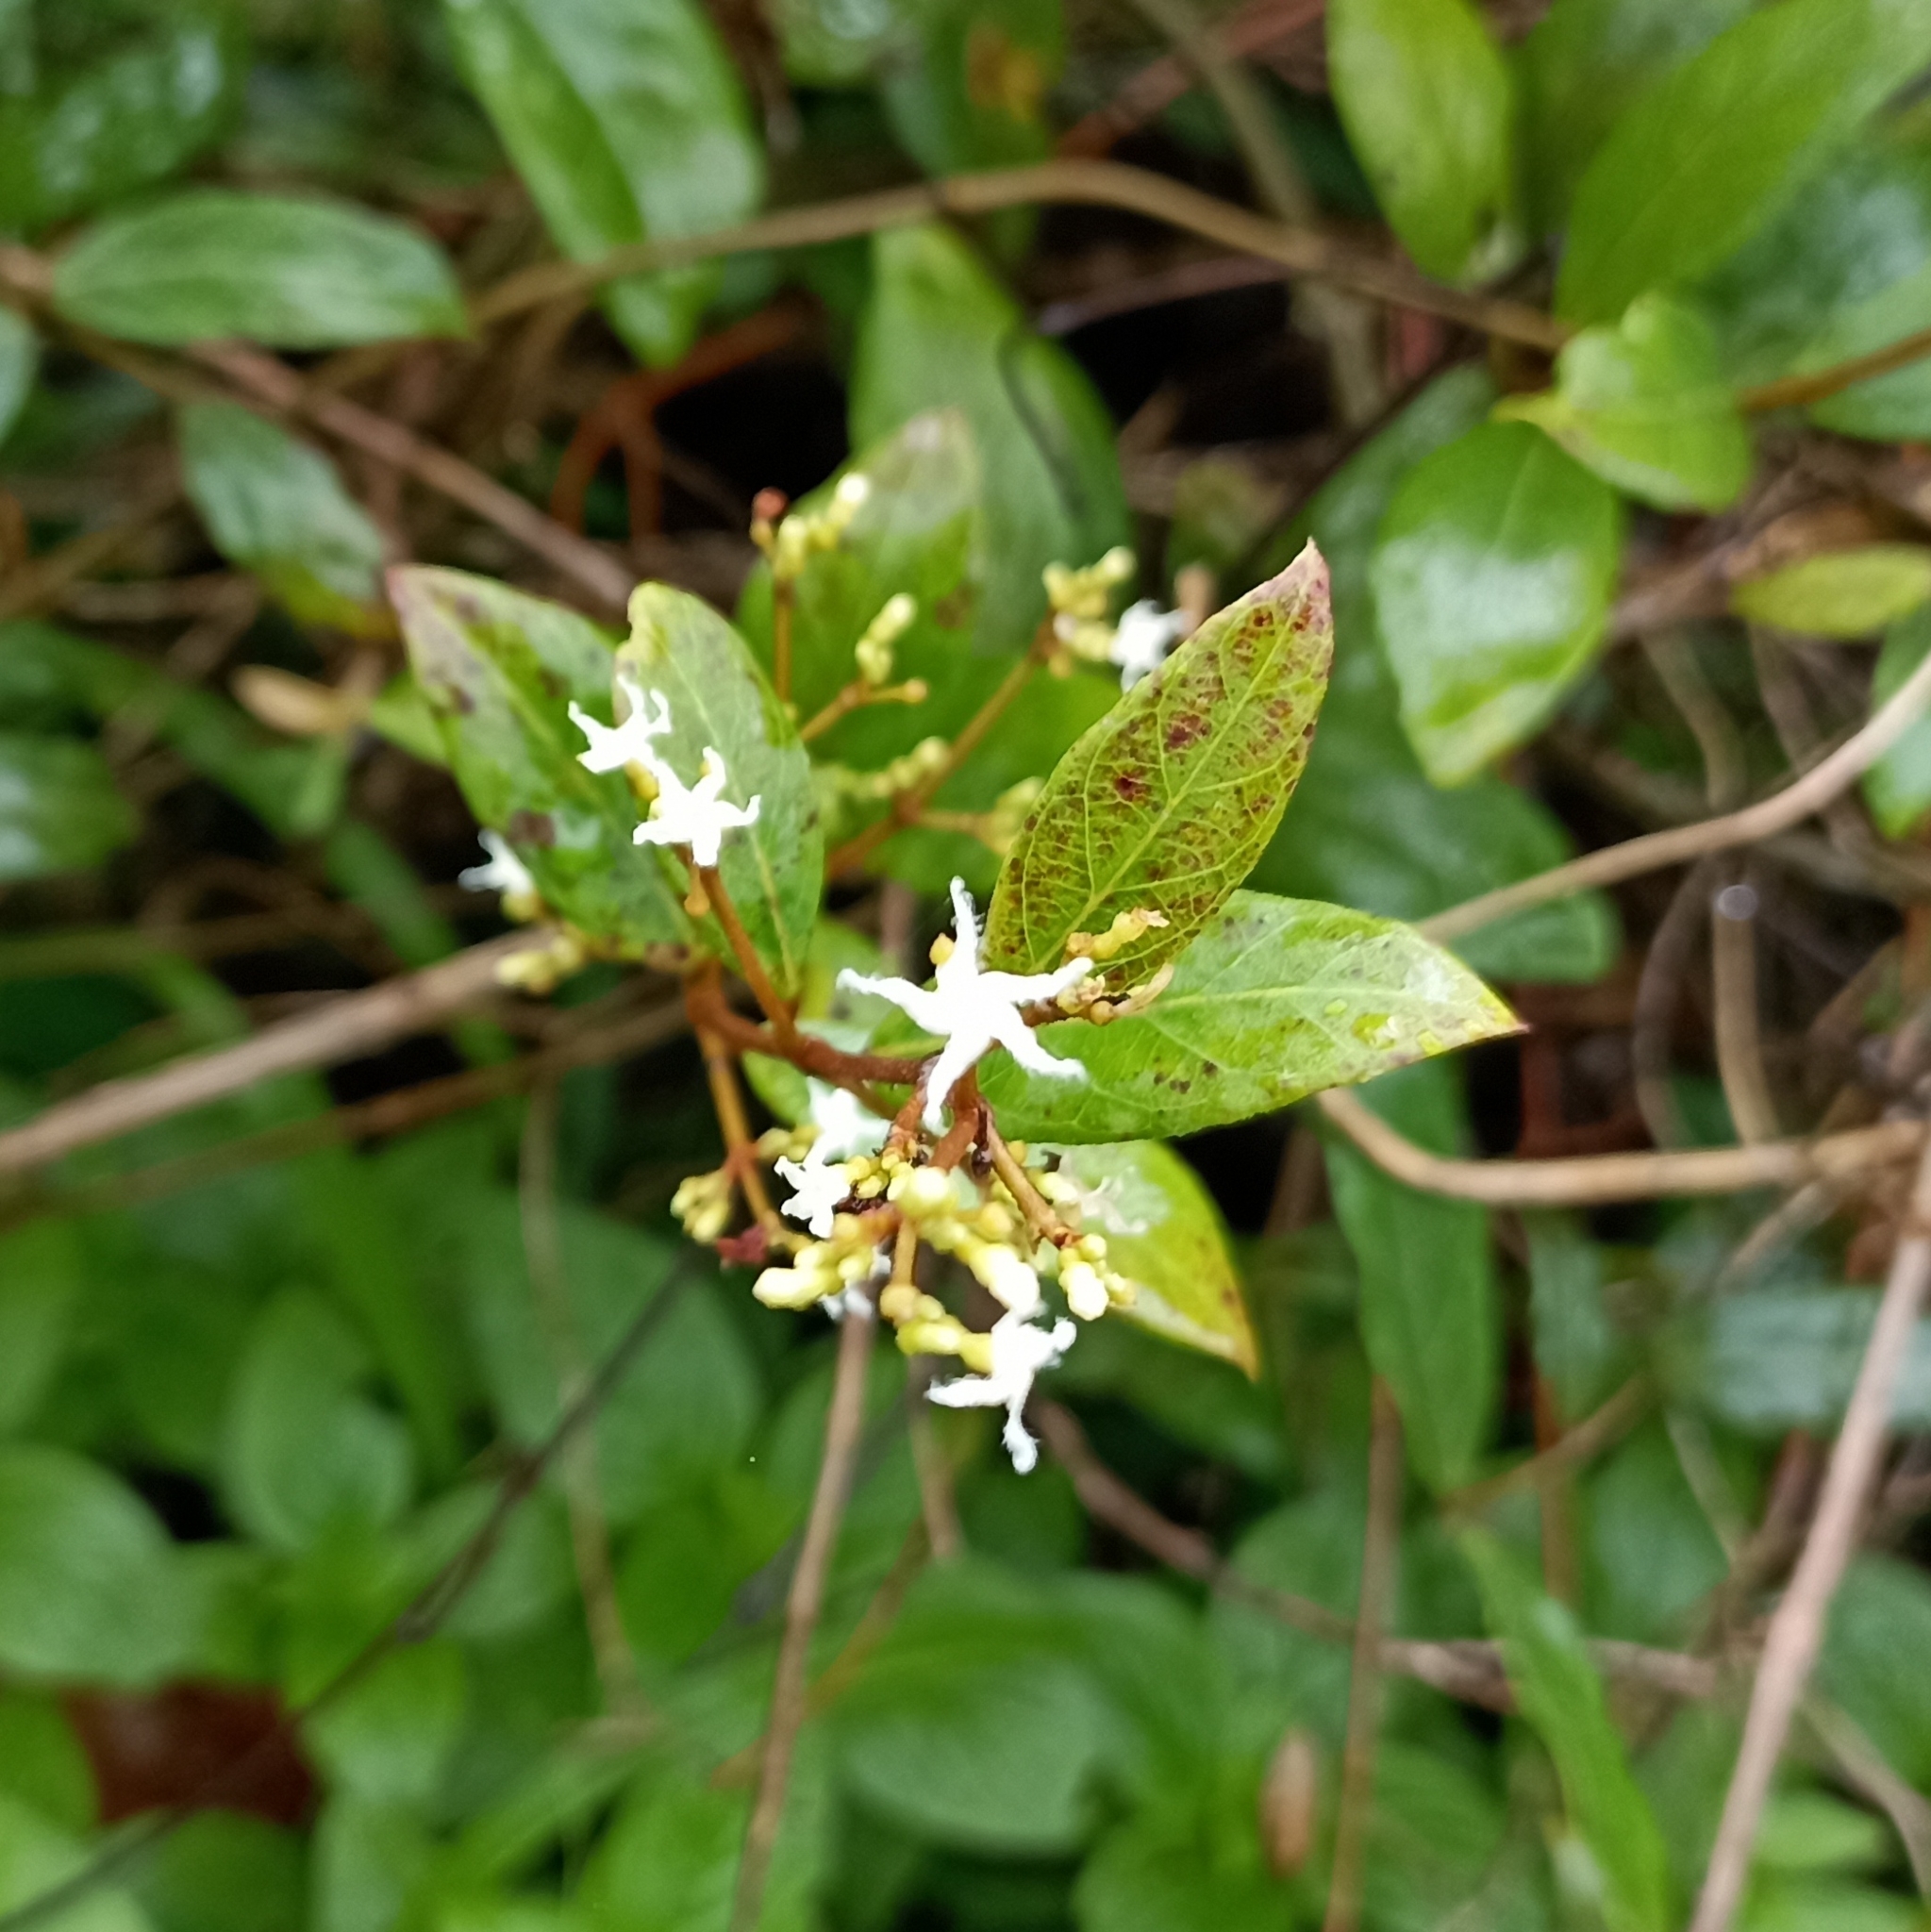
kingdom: Plantae
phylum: Tracheophyta
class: Magnoliopsida
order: Gentianales
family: Apocynaceae
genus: Ichnocarpus
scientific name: Ichnocarpus frutescens
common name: Ichnocarpus
